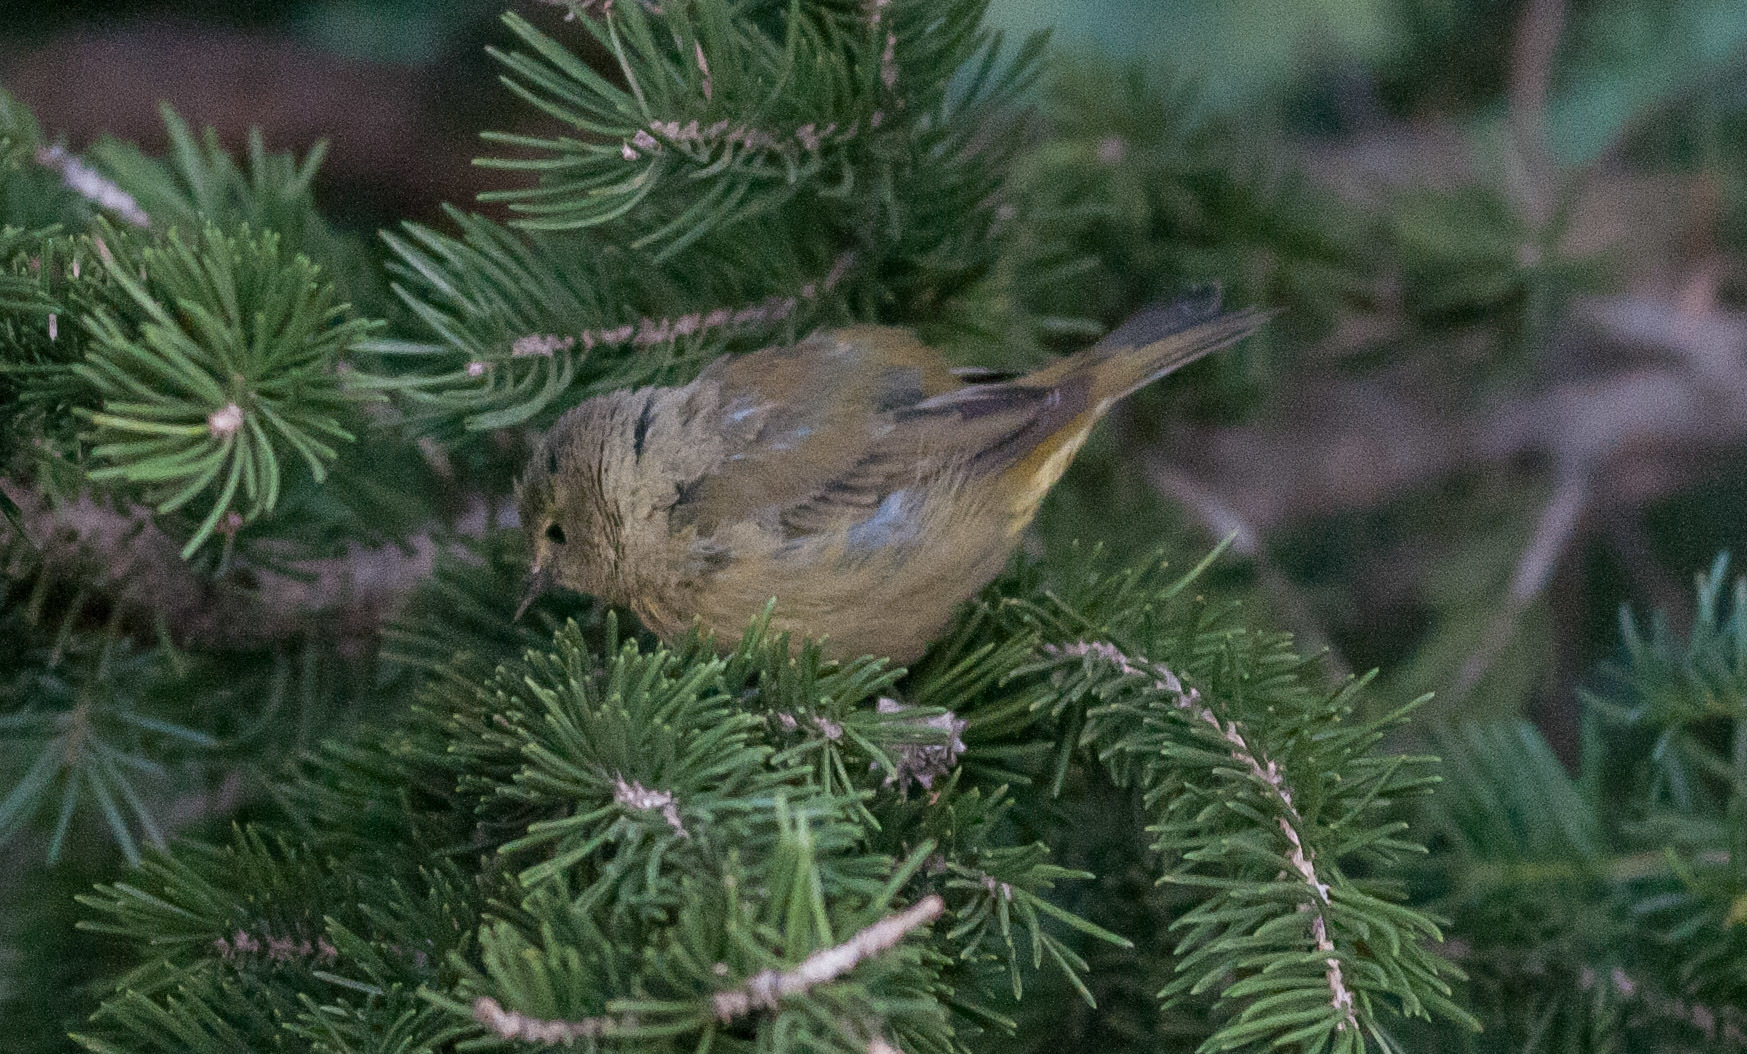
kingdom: Animalia
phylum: Chordata
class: Aves
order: Passeriformes
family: Parulidae
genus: Leiothlypis
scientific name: Leiothlypis celata
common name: Orange-crowned warbler
